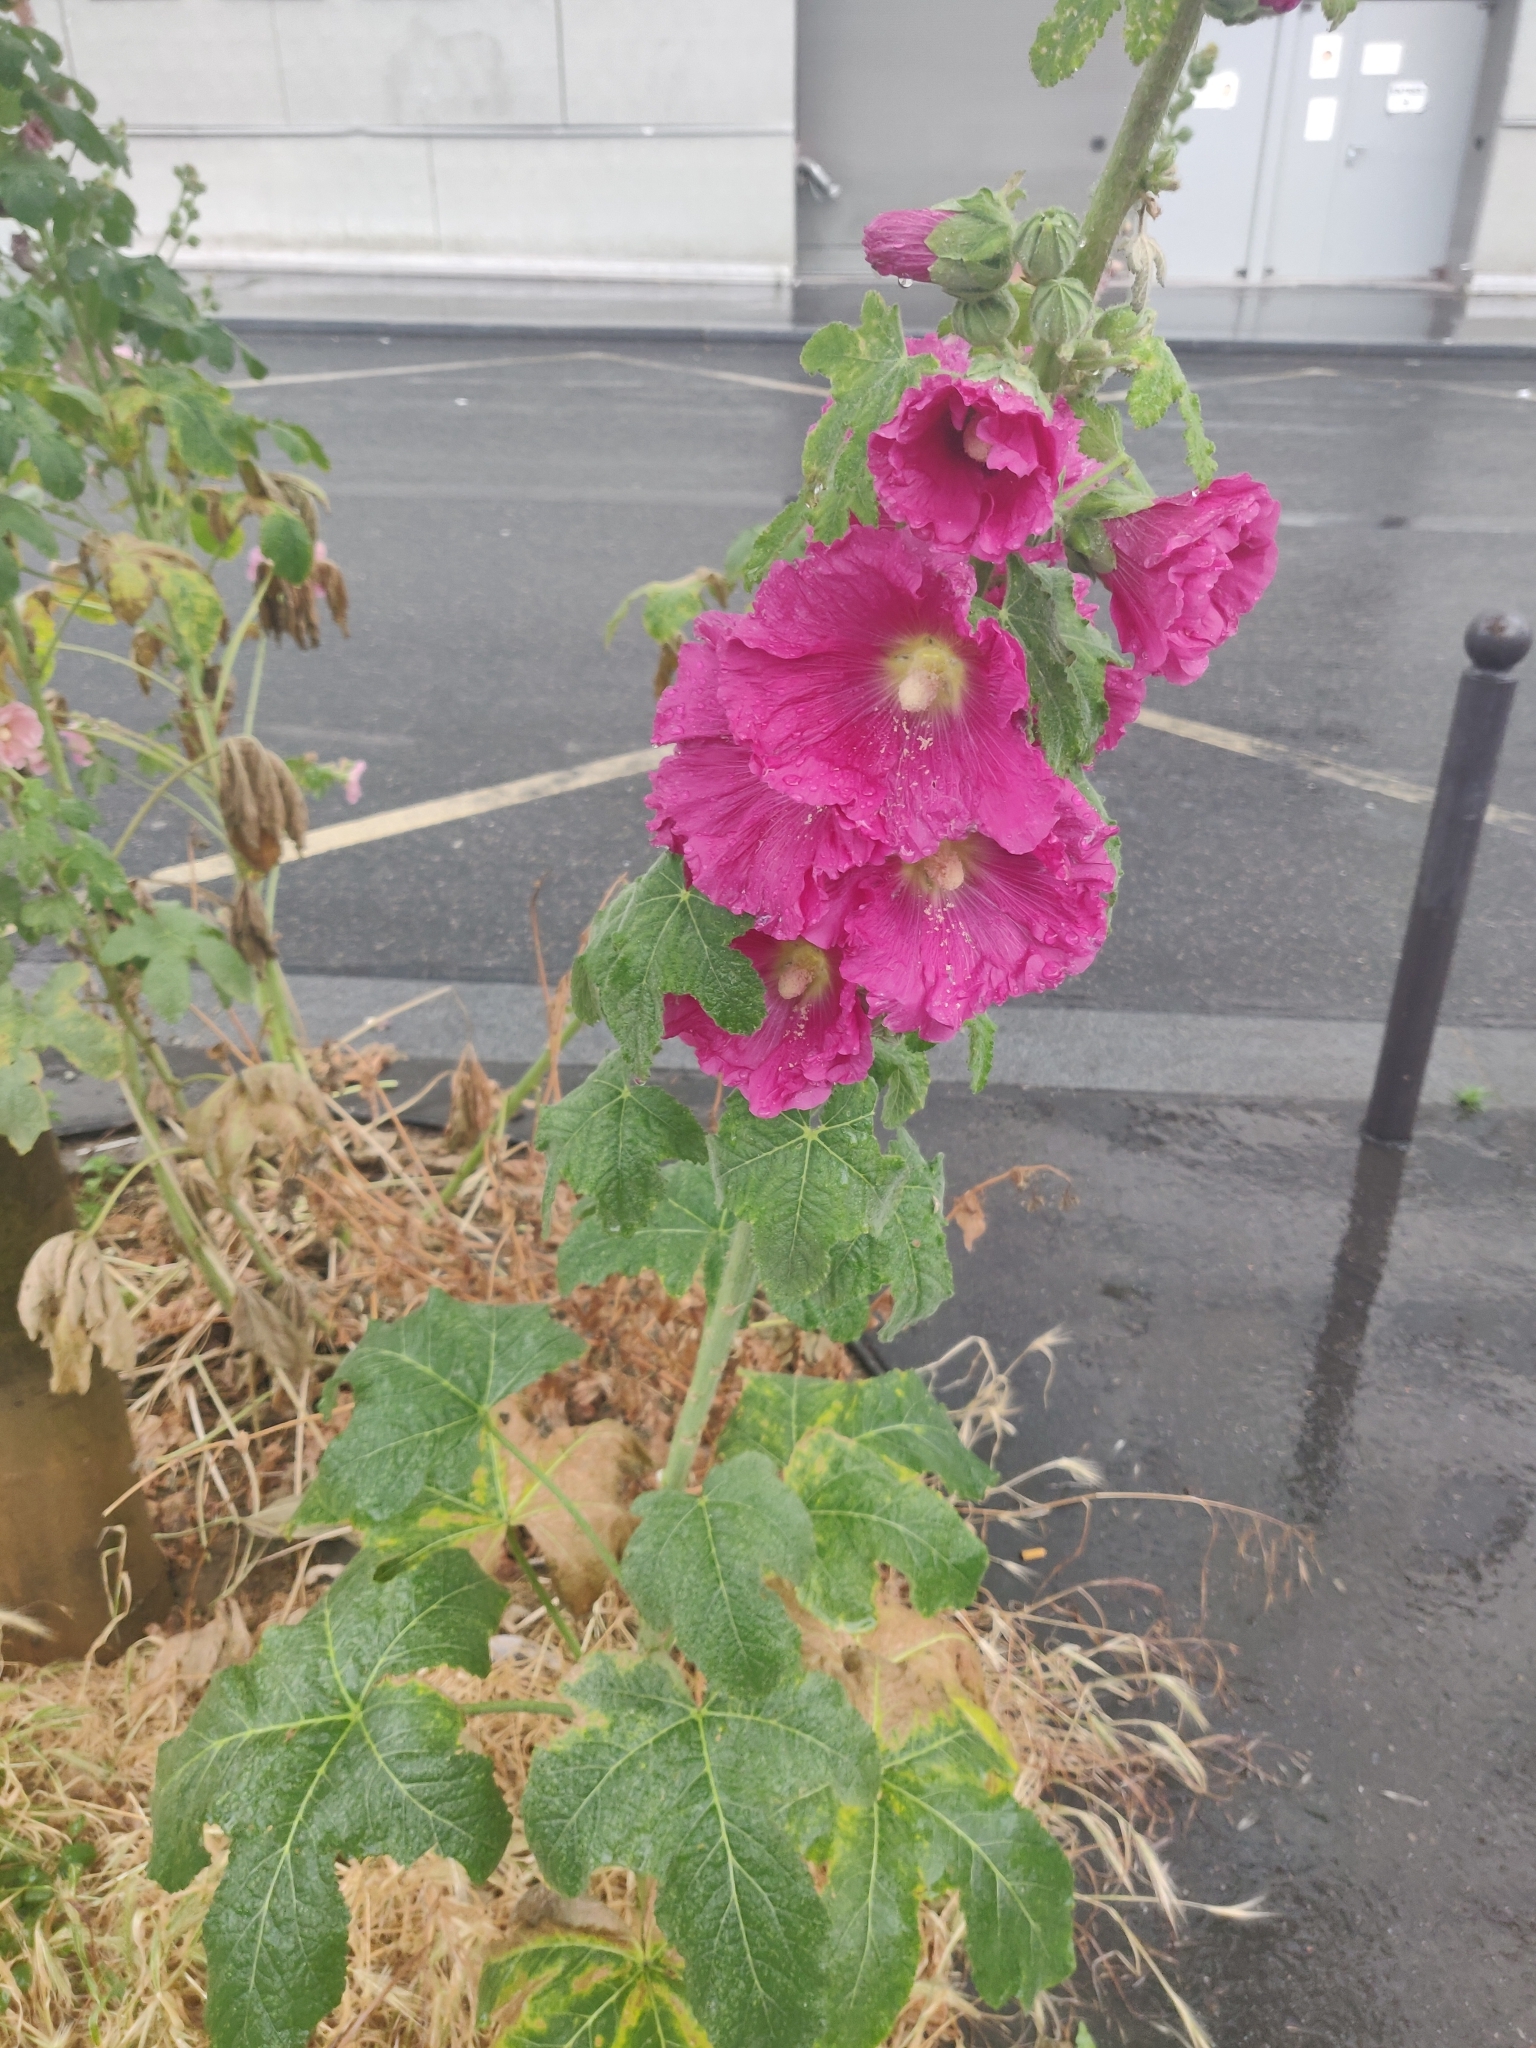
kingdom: Plantae
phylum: Tracheophyta
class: Magnoliopsida
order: Malvales
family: Malvaceae
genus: Alcea
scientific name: Alcea rosea
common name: Hollyhock
